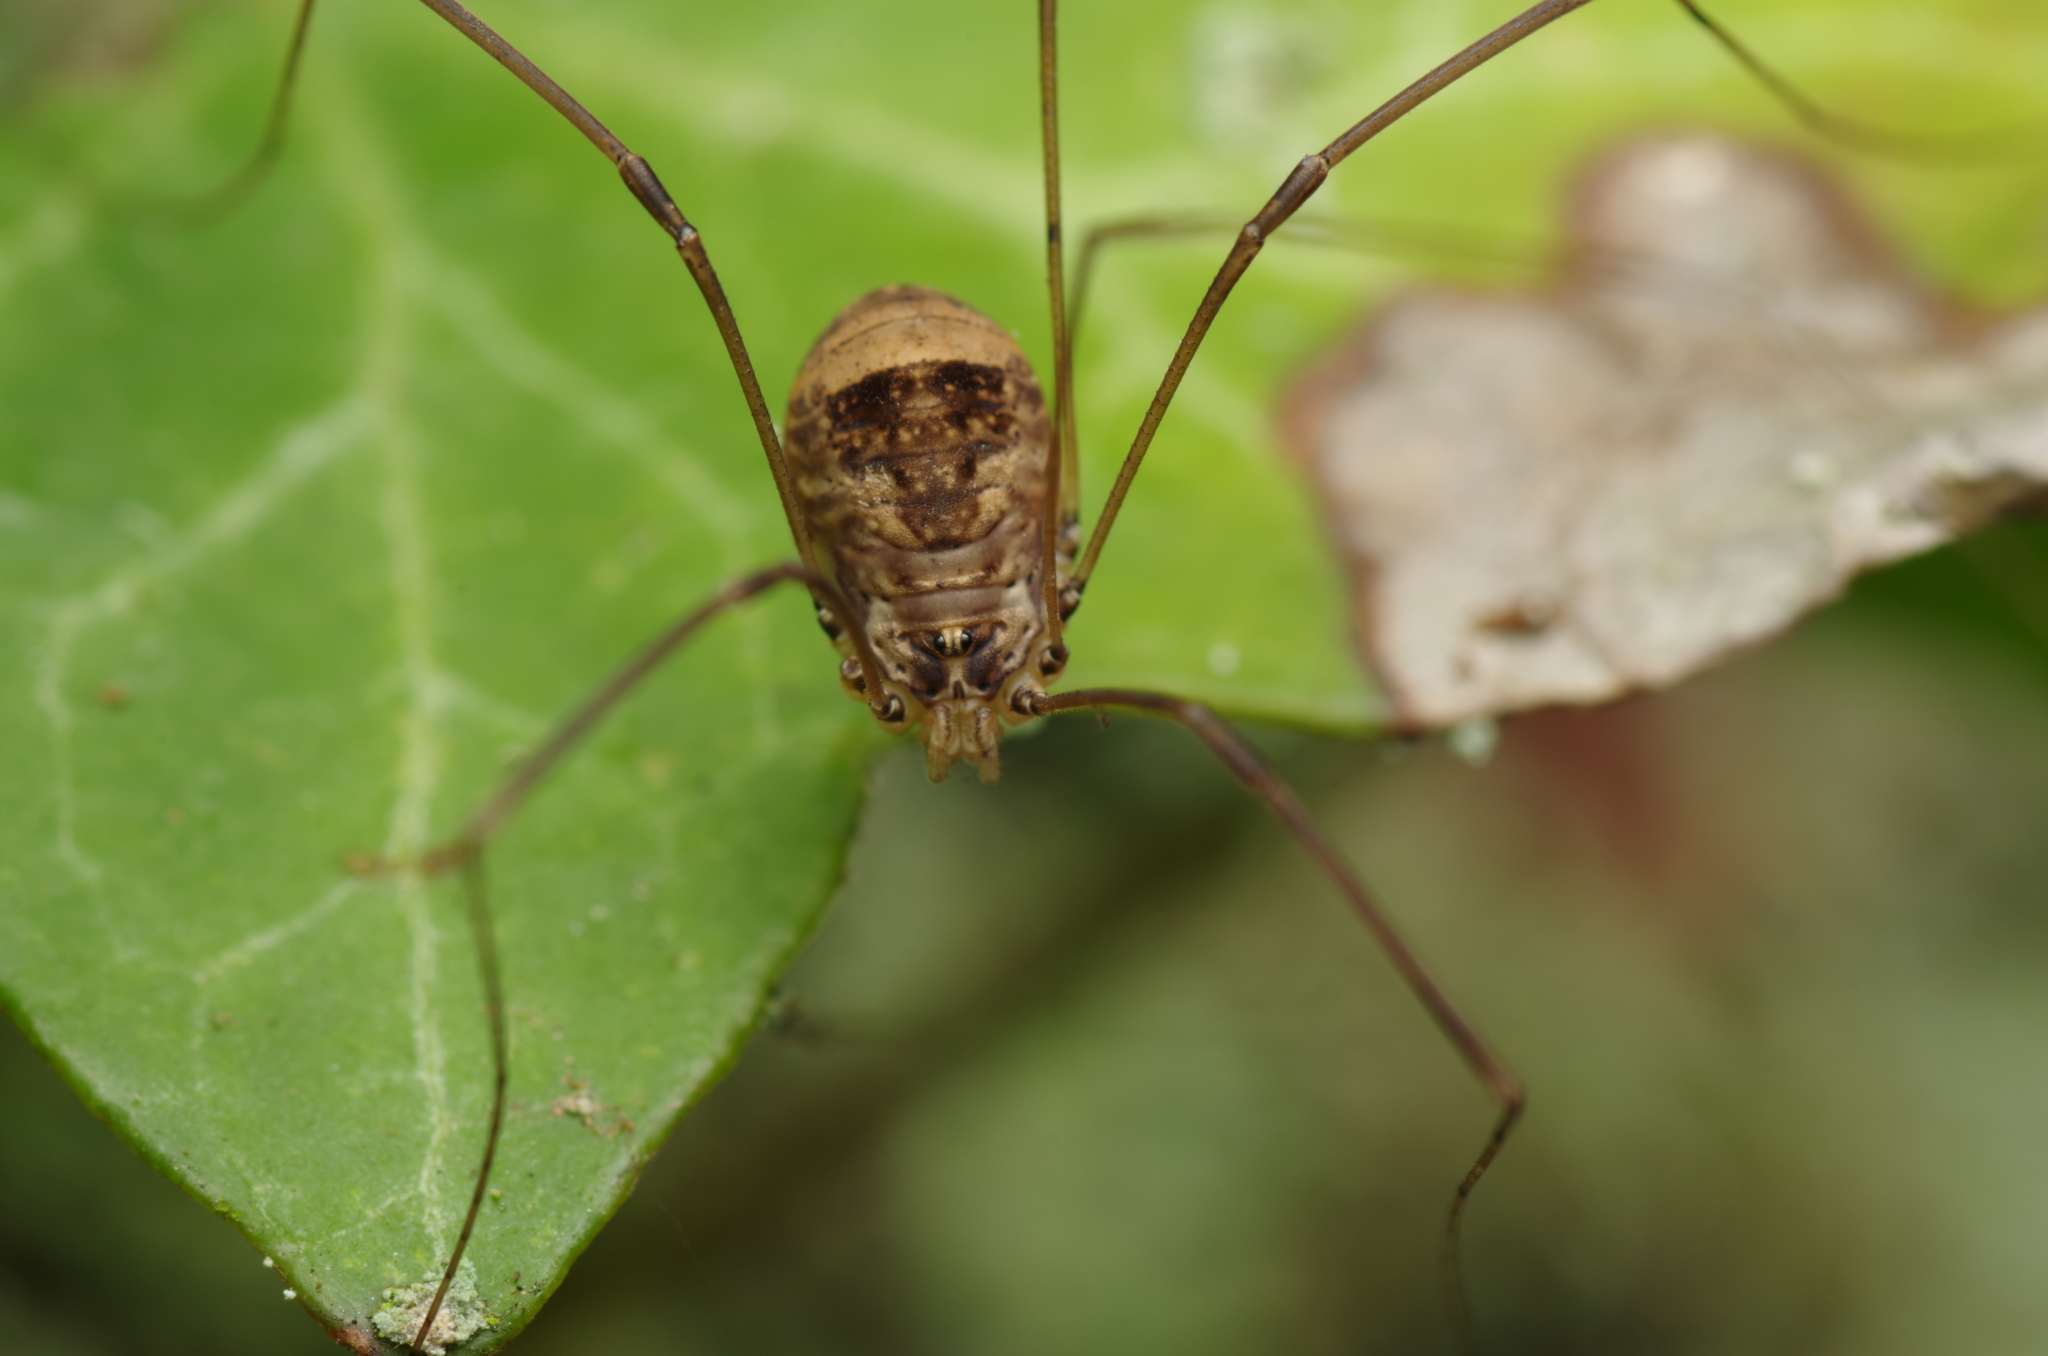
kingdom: Animalia
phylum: Arthropoda
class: Arachnida
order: Opiliones
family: Sclerosomatidae
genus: Leiobunum
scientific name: Leiobunum blackwalli
